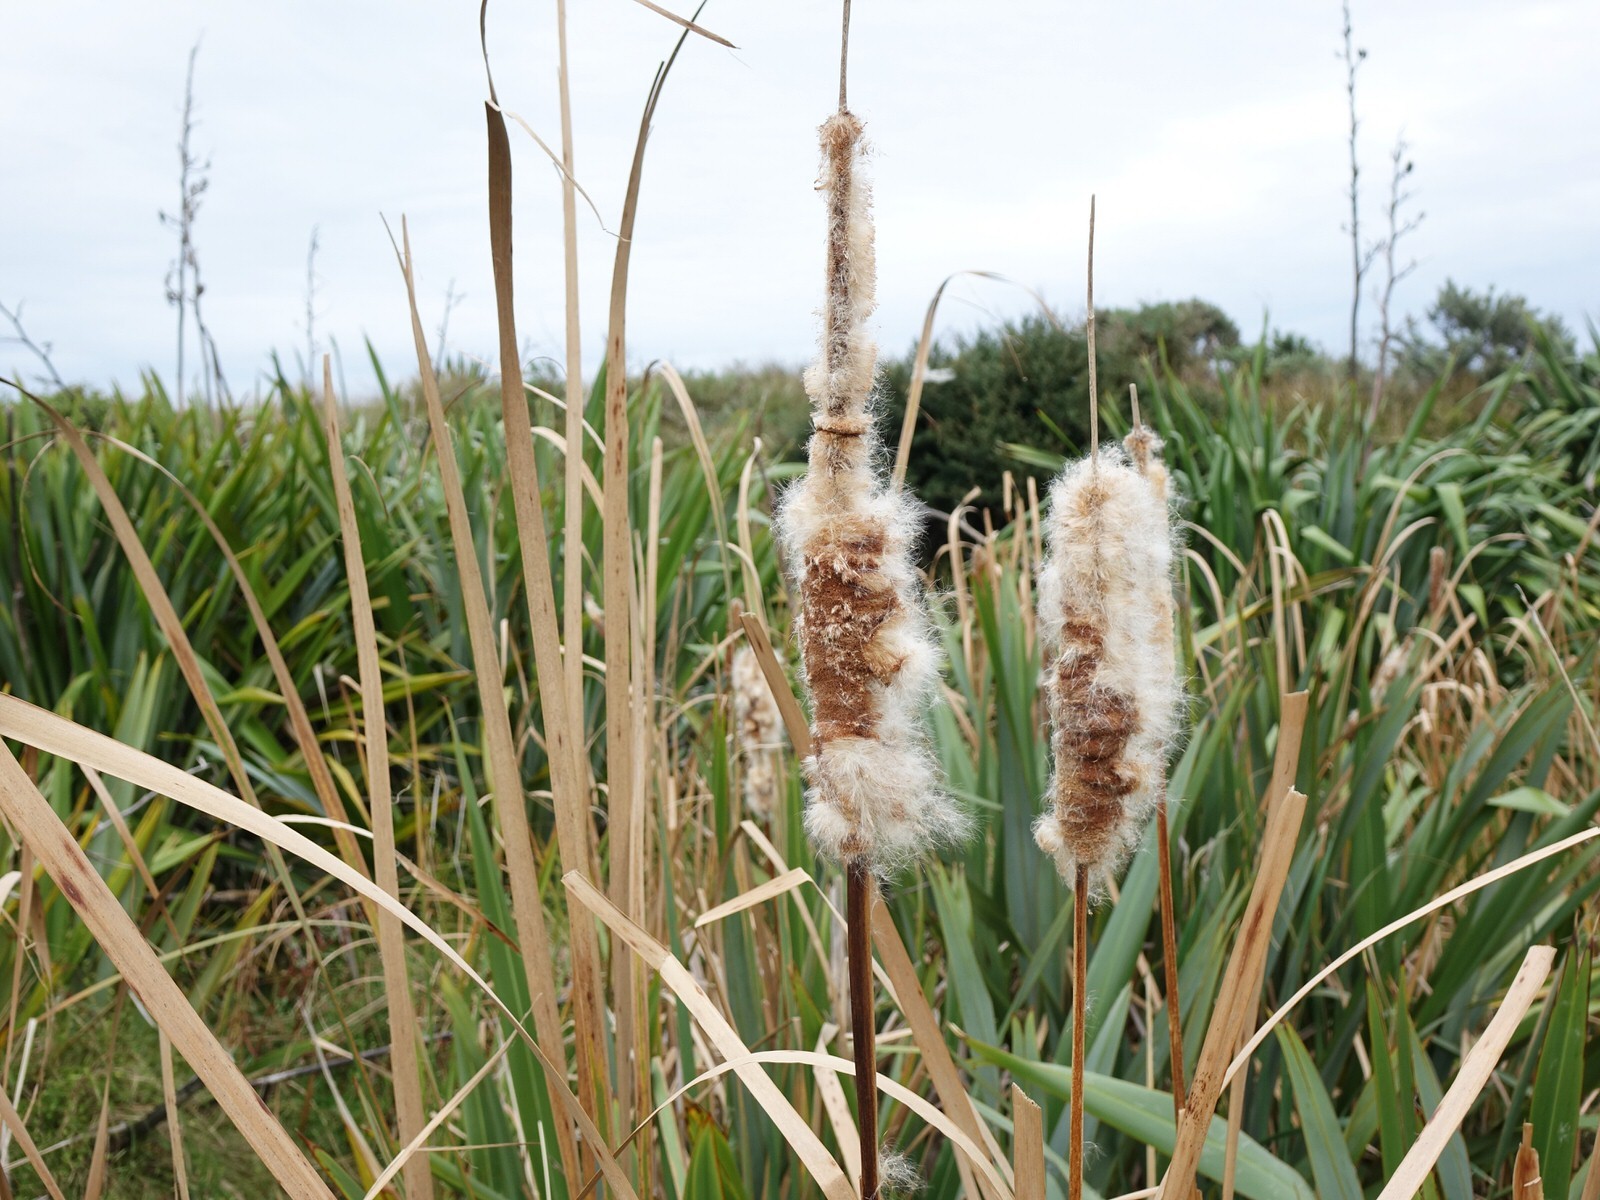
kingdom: Plantae
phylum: Tracheophyta
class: Liliopsida
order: Poales
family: Typhaceae
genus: Typha
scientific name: Typha orientalis
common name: Bullrush
